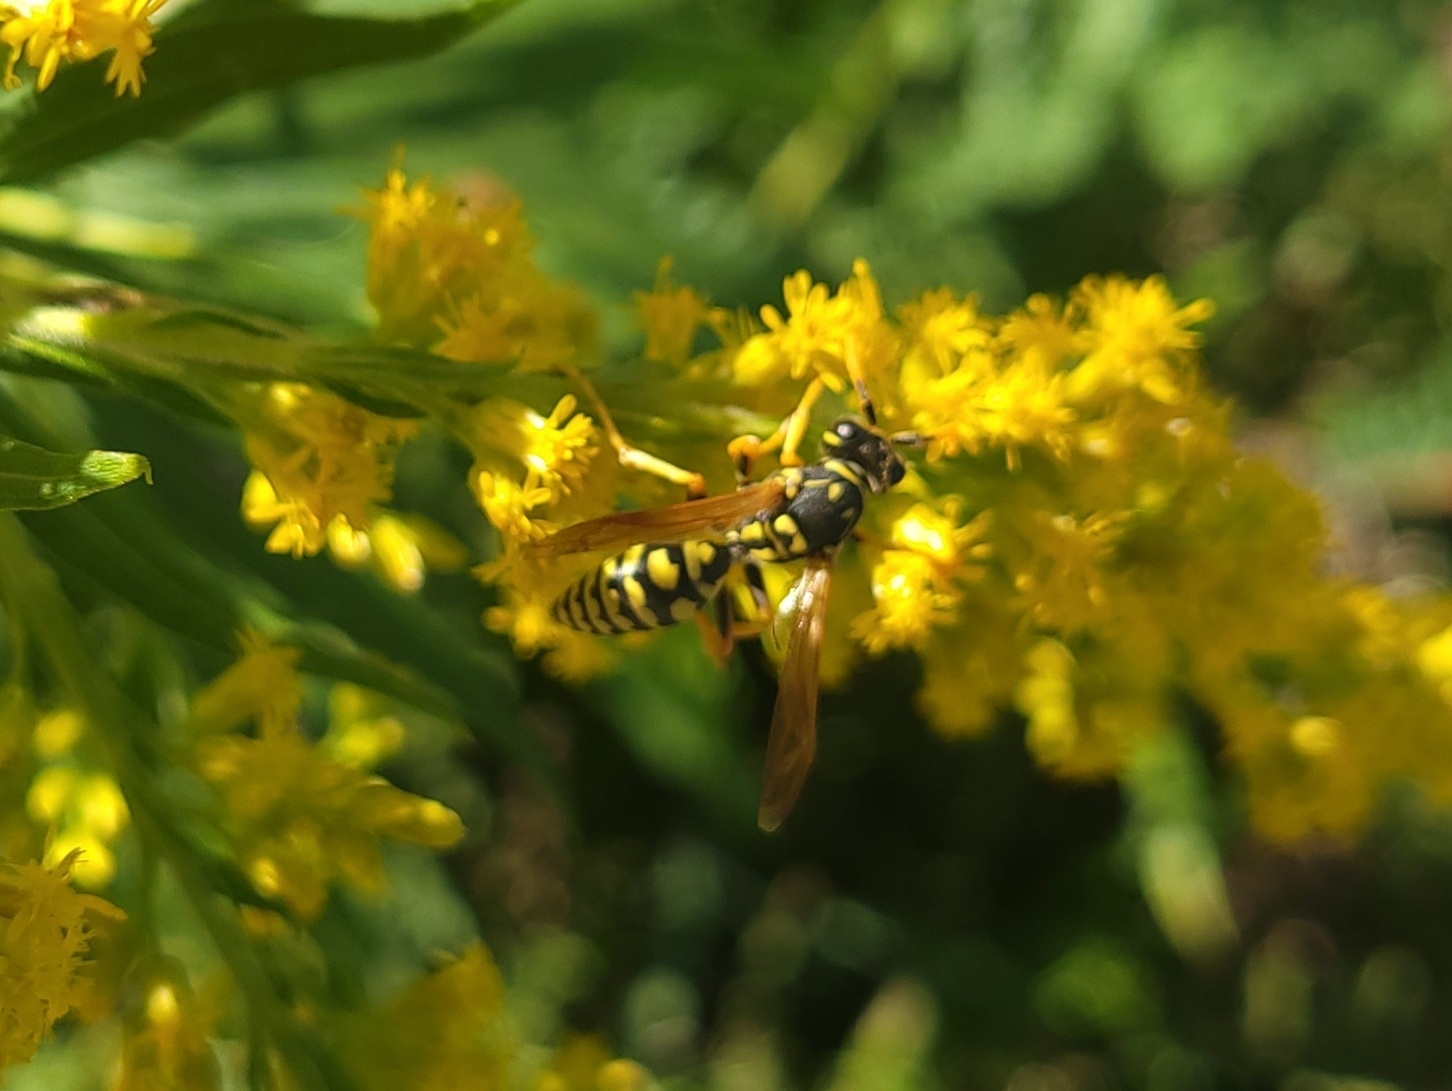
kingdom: Animalia
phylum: Arthropoda
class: Insecta
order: Hymenoptera
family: Eumenidae
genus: Polistes
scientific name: Polistes dominula
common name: Paper wasp
